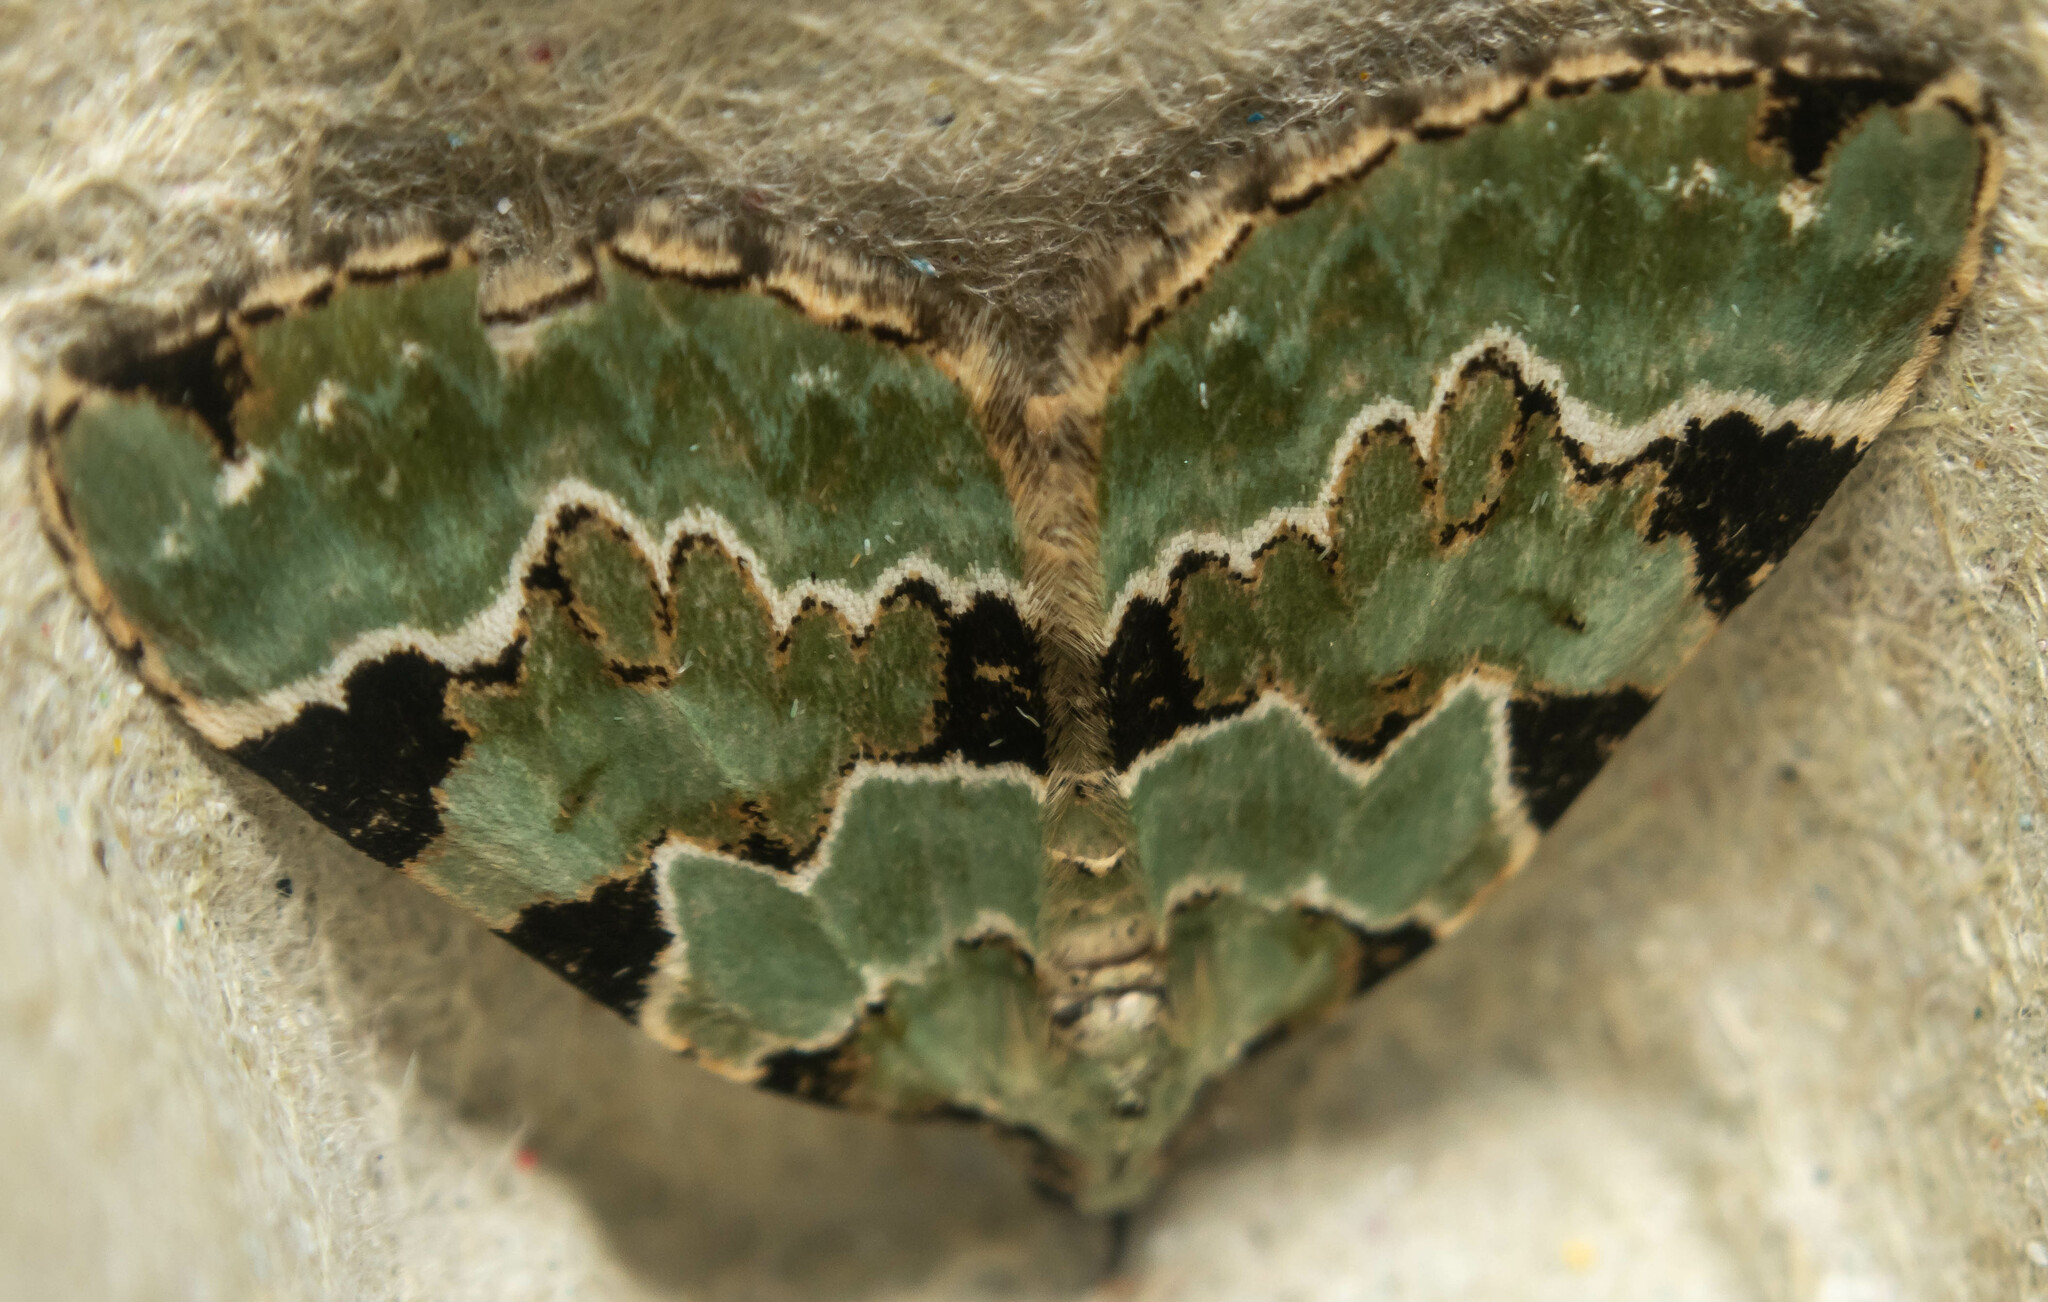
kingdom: Animalia
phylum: Arthropoda
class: Insecta
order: Lepidoptera
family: Geometridae
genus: Colostygia
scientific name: Colostygia pectinataria
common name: Green carpet
